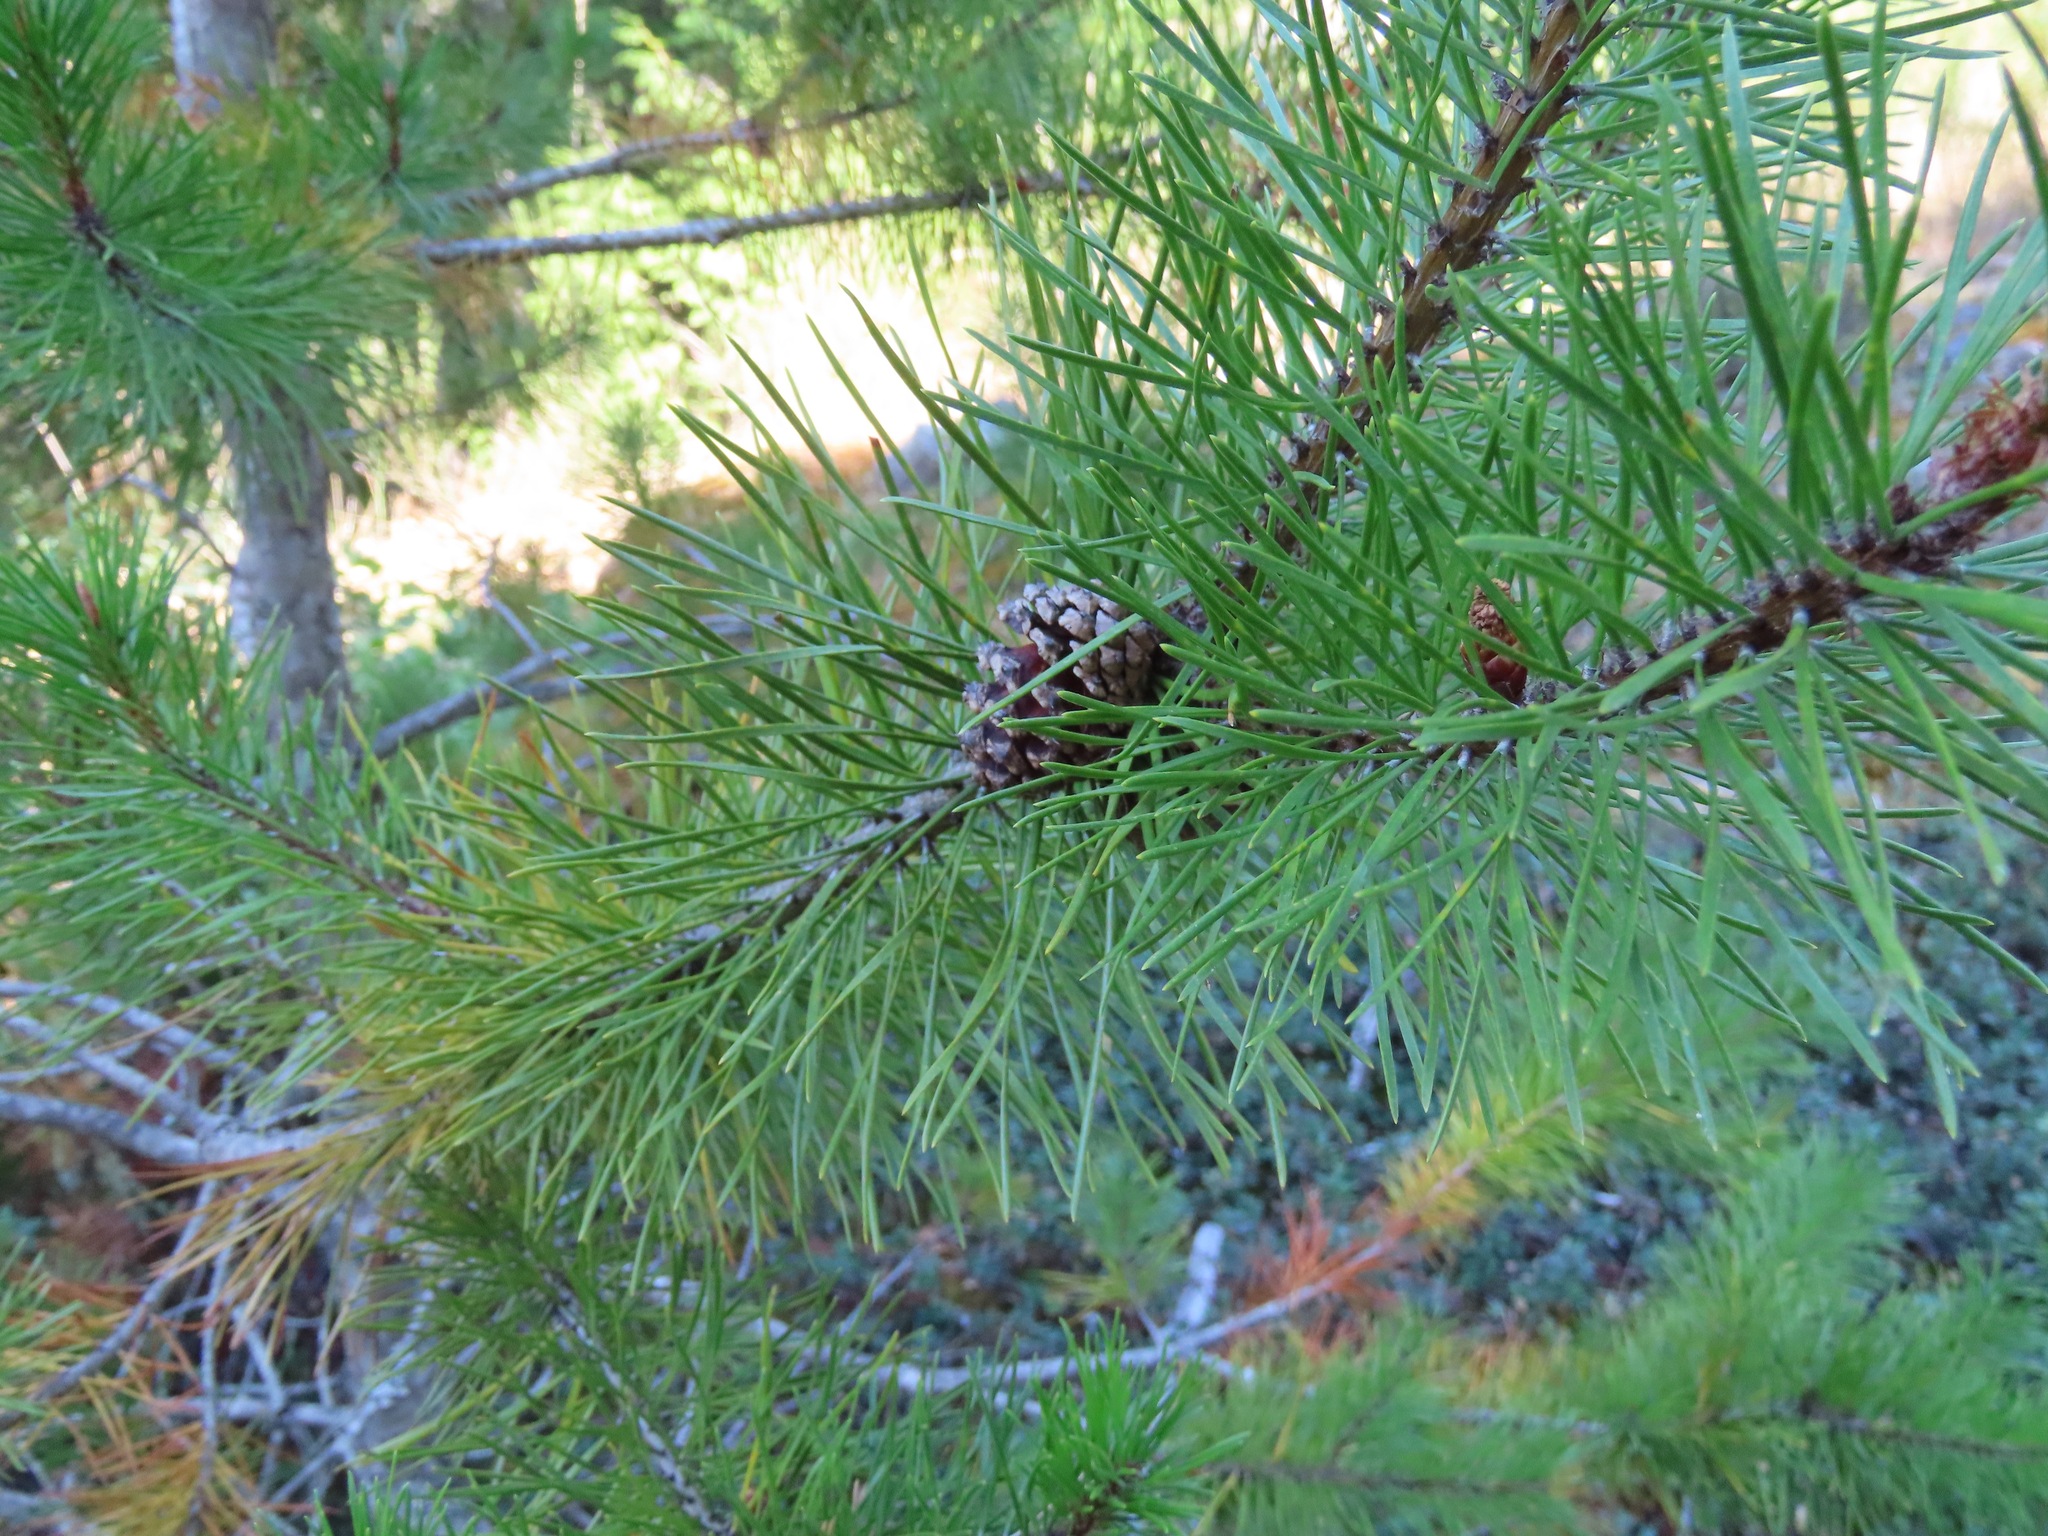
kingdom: Plantae
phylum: Tracheophyta
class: Pinopsida
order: Pinales
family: Pinaceae
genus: Pinus
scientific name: Pinus contorta
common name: Lodgepole pine
